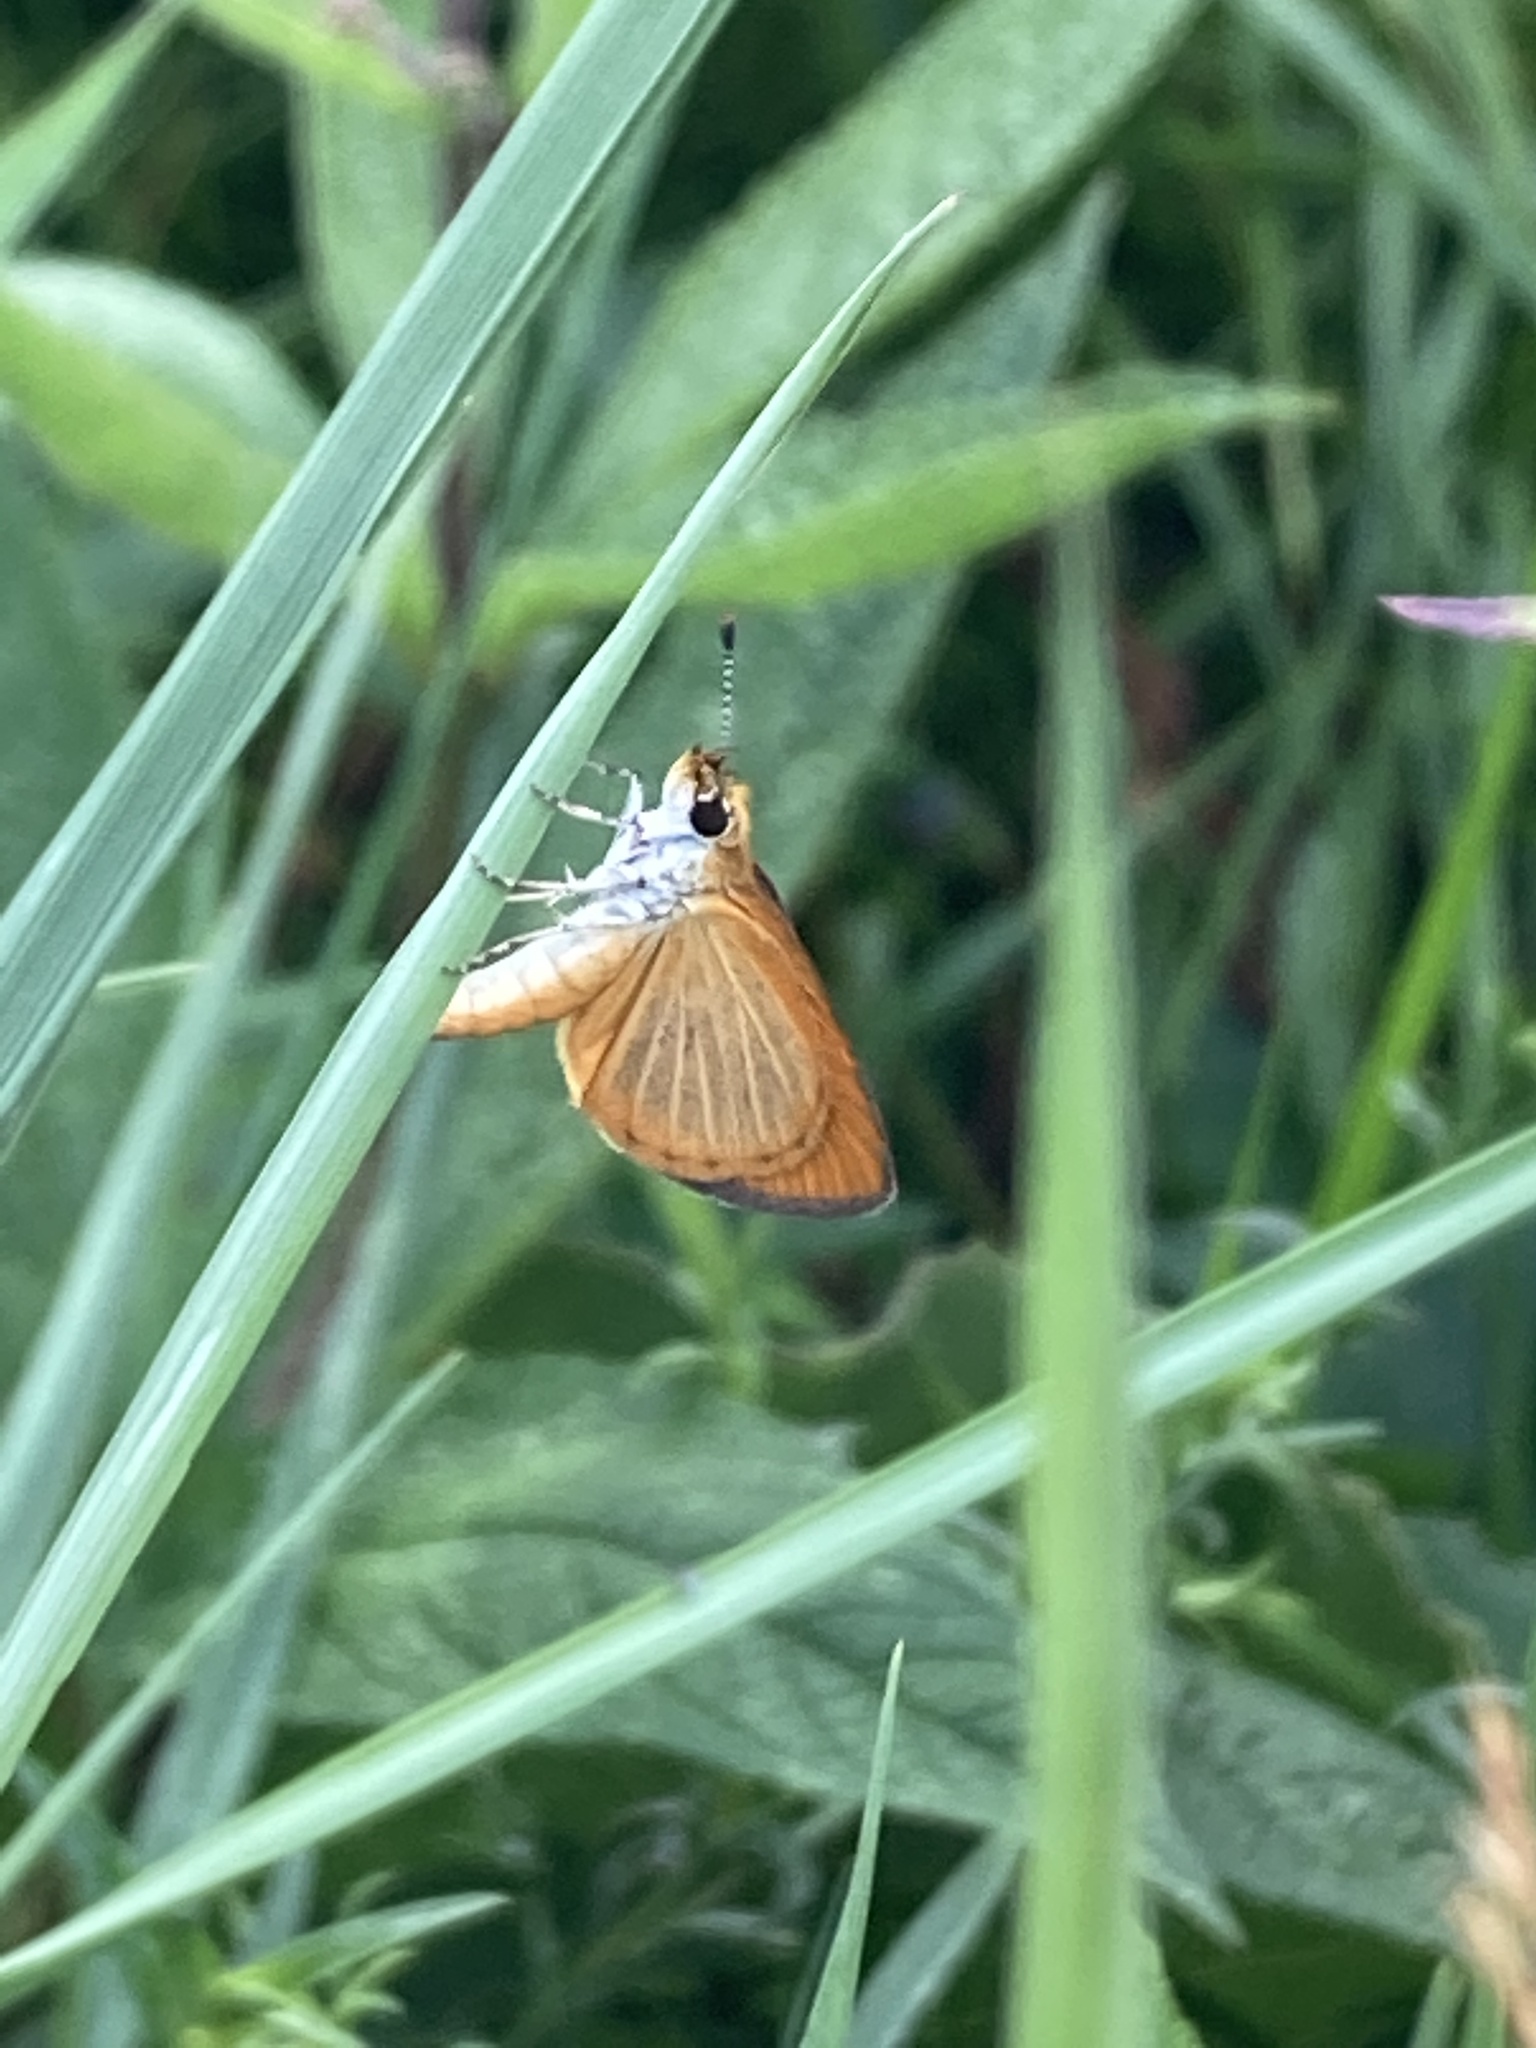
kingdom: Animalia
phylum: Arthropoda
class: Insecta
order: Lepidoptera
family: Hesperiidae
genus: Ancyloxypha
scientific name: Ancyloxypha numitor
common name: Least skipper
